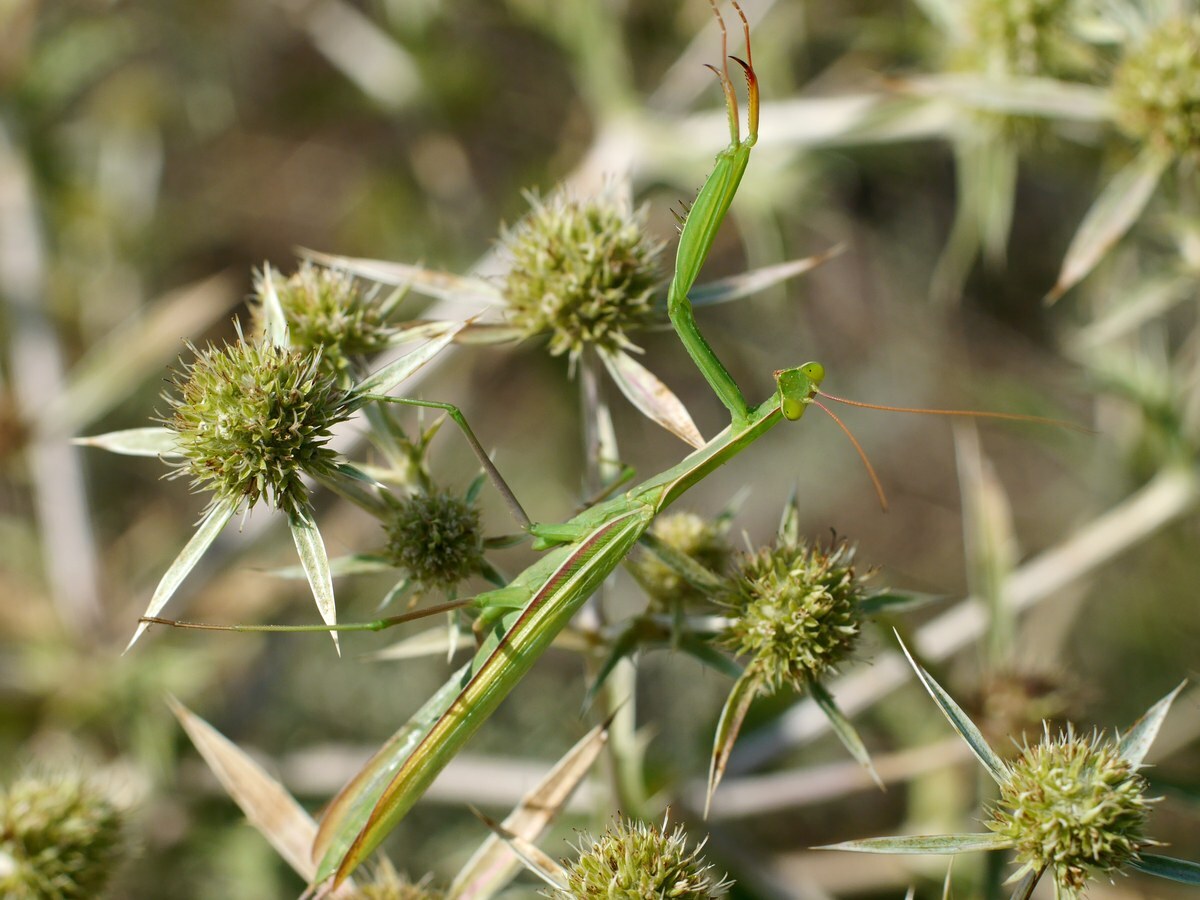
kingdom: Animalia
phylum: Arthropoda
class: Insecta
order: Mantodea
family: Mantidae
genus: Mantis
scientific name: Mantis religiosa
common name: Praying mantis
